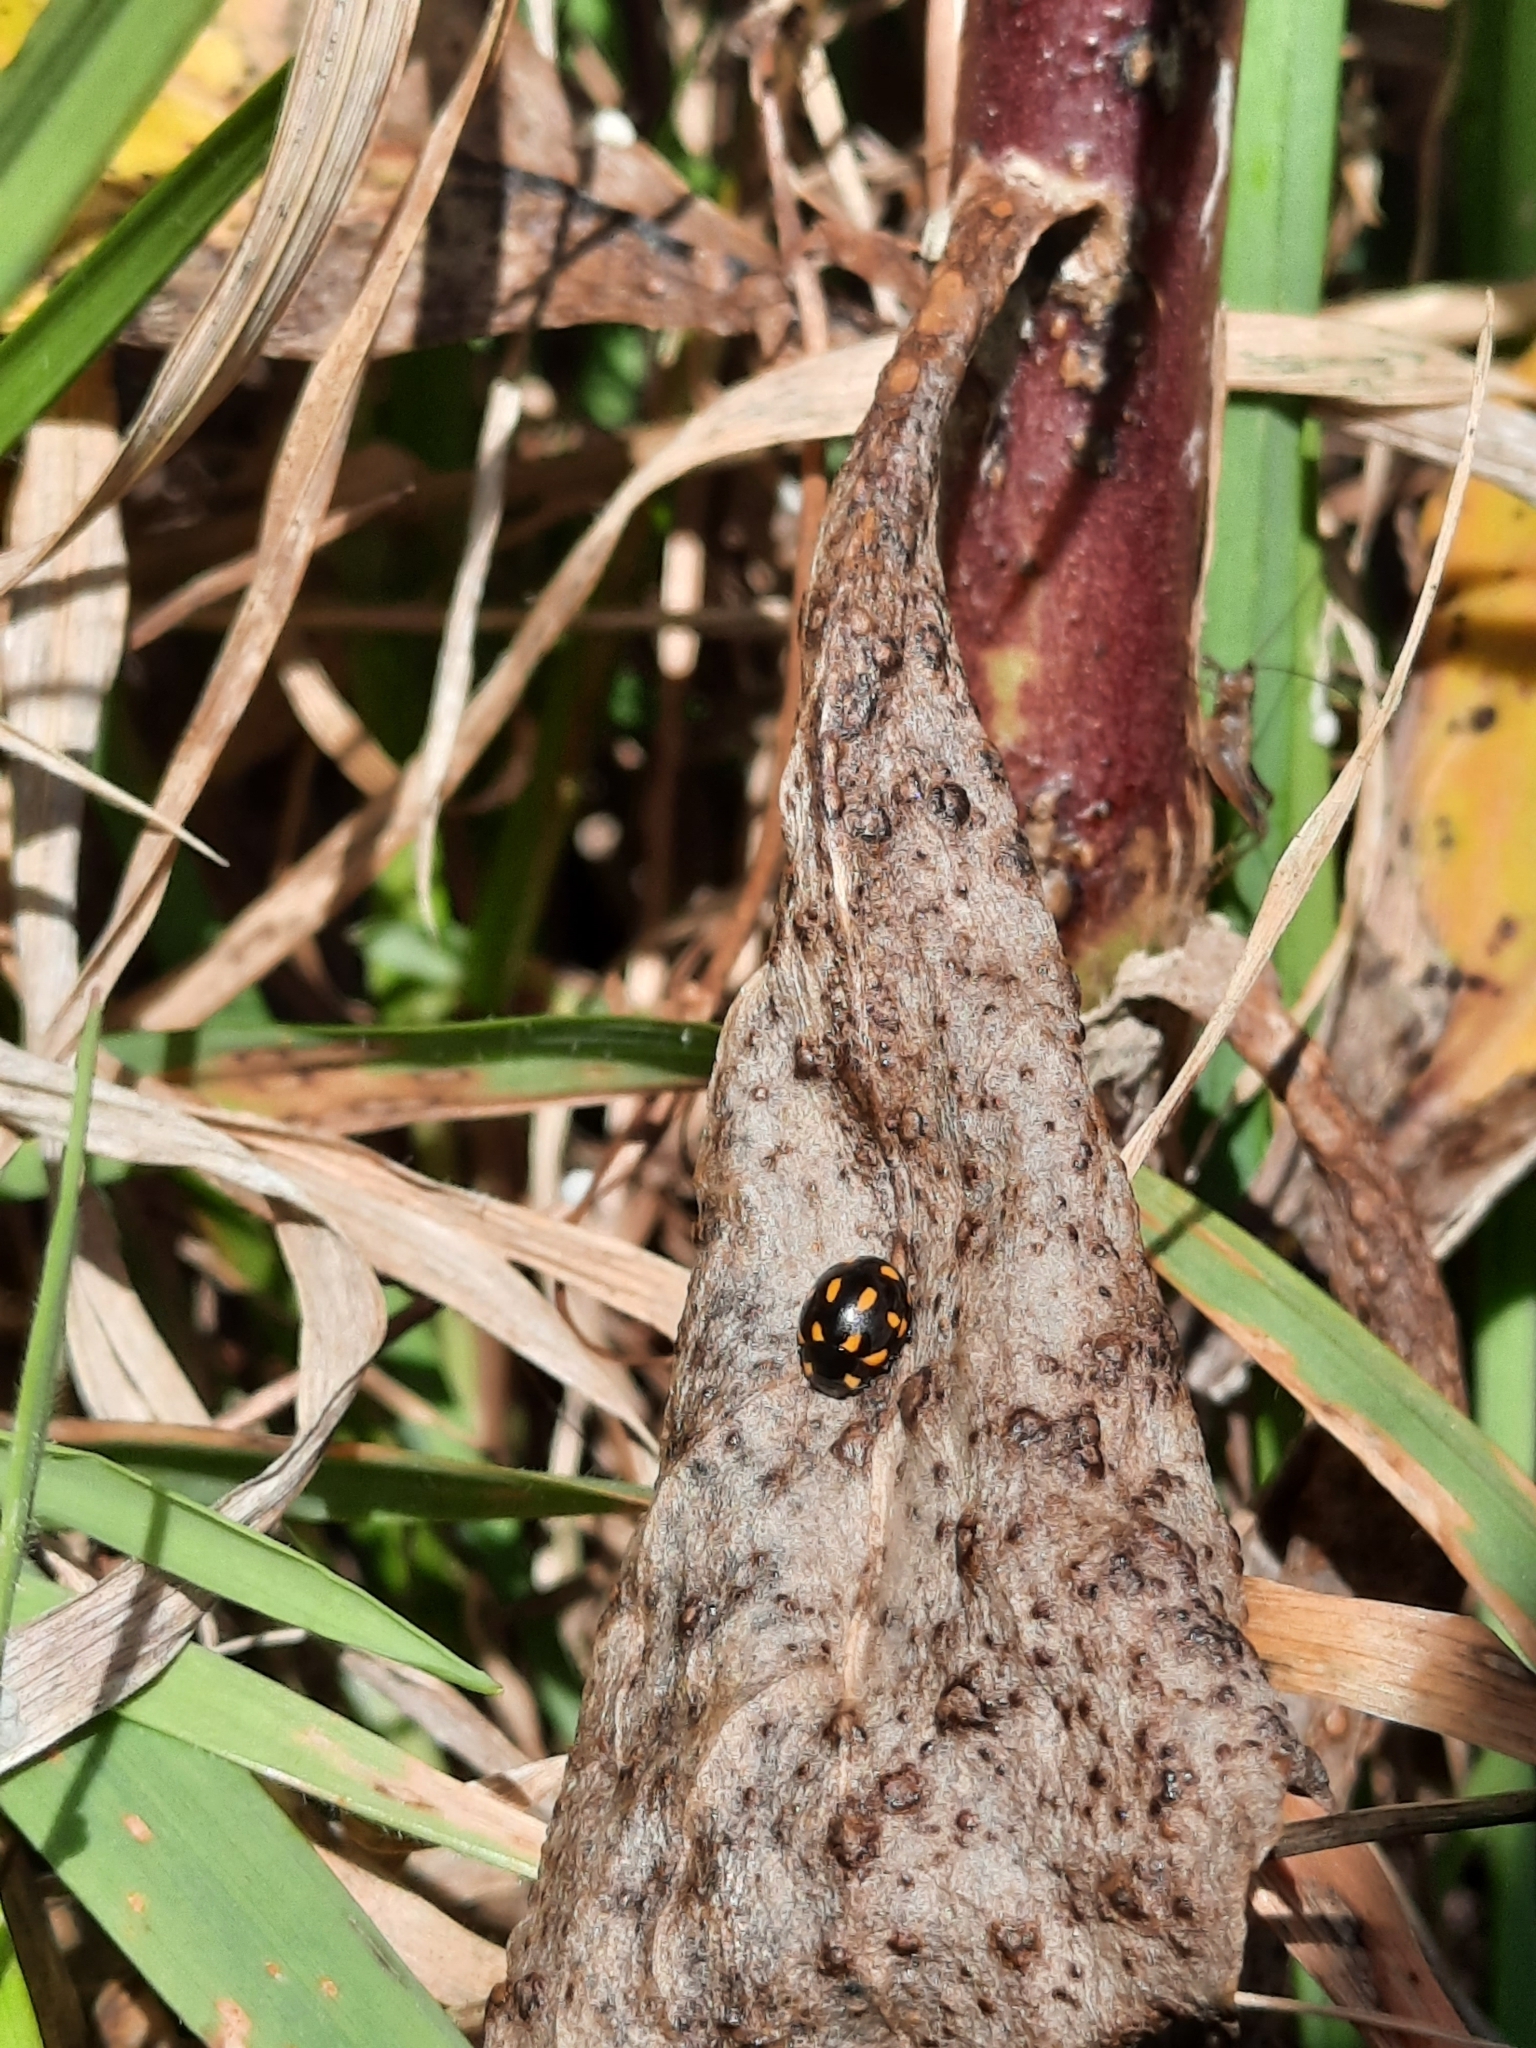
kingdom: Animalia
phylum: Arthropoda
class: Insecta
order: Coleoptera
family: Coccinellidae
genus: Coccinella
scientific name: Coccinella leonina
